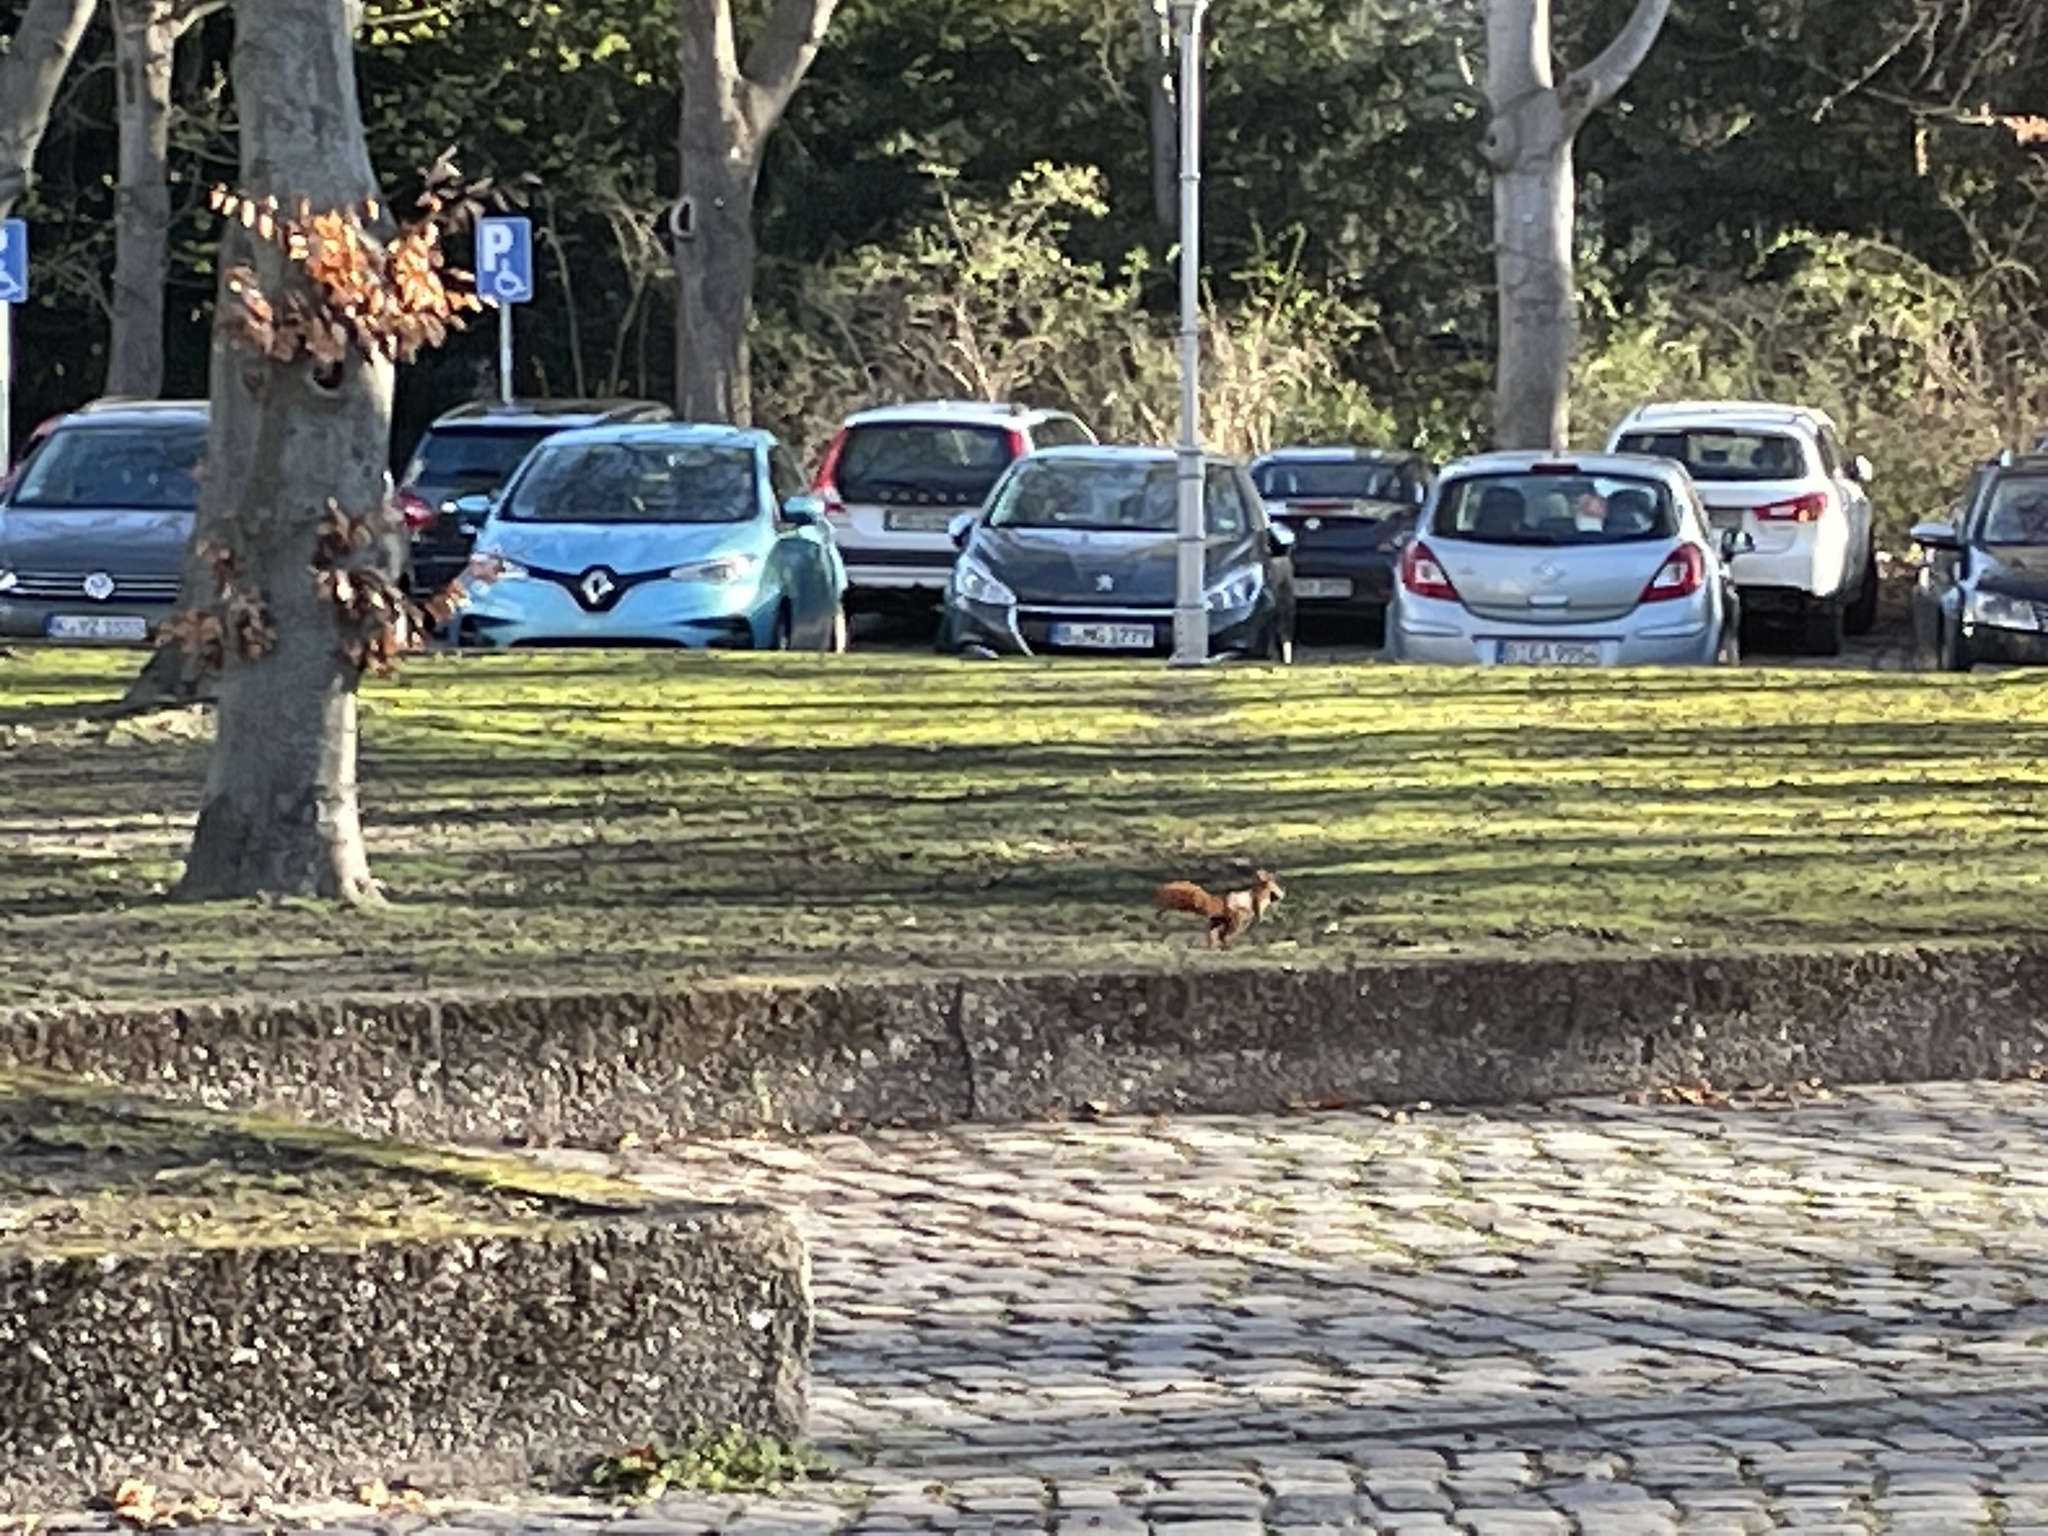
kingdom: Animalia
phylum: Chordata
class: Mammalia
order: Rodentia
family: Sciuridae
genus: Sciurus
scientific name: Sciurus vulgaris
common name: Eurasian red squirrel
